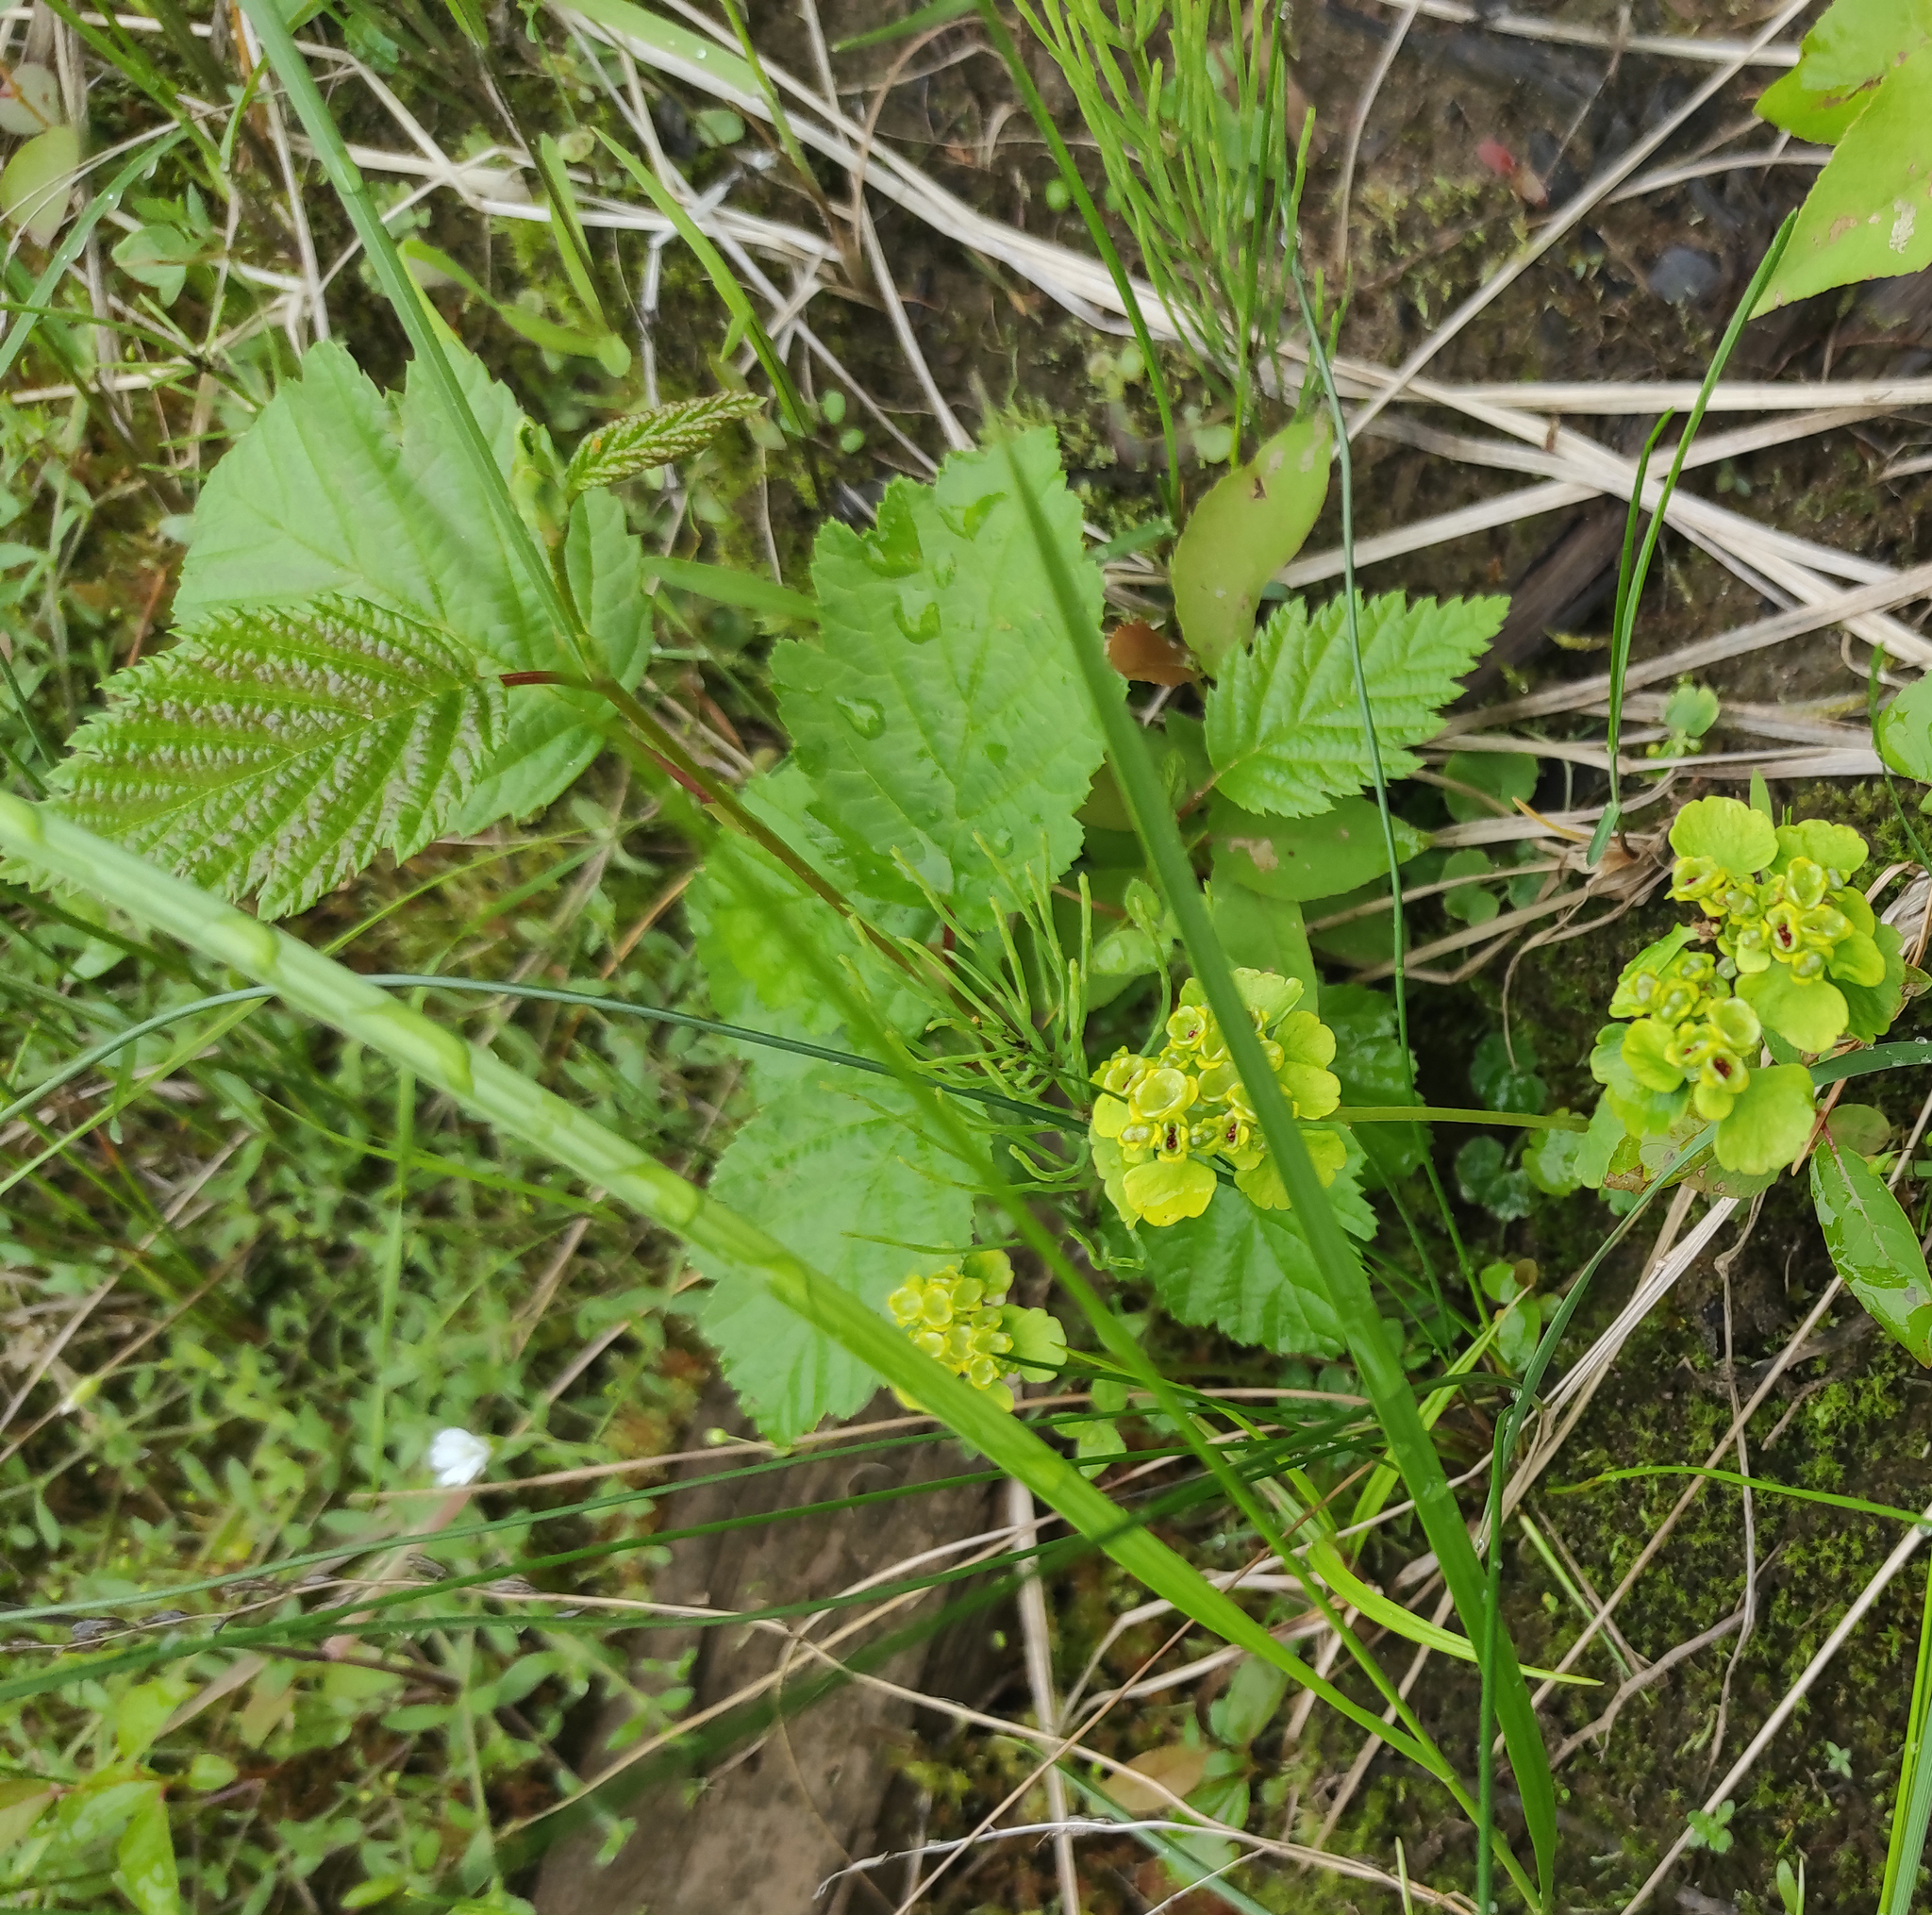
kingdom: Plantae
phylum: Tracheophyta
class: Magnoliopsida
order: Fagales
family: Betulaceae
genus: Alnus
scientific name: Alnus alnobetula
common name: Green alder
